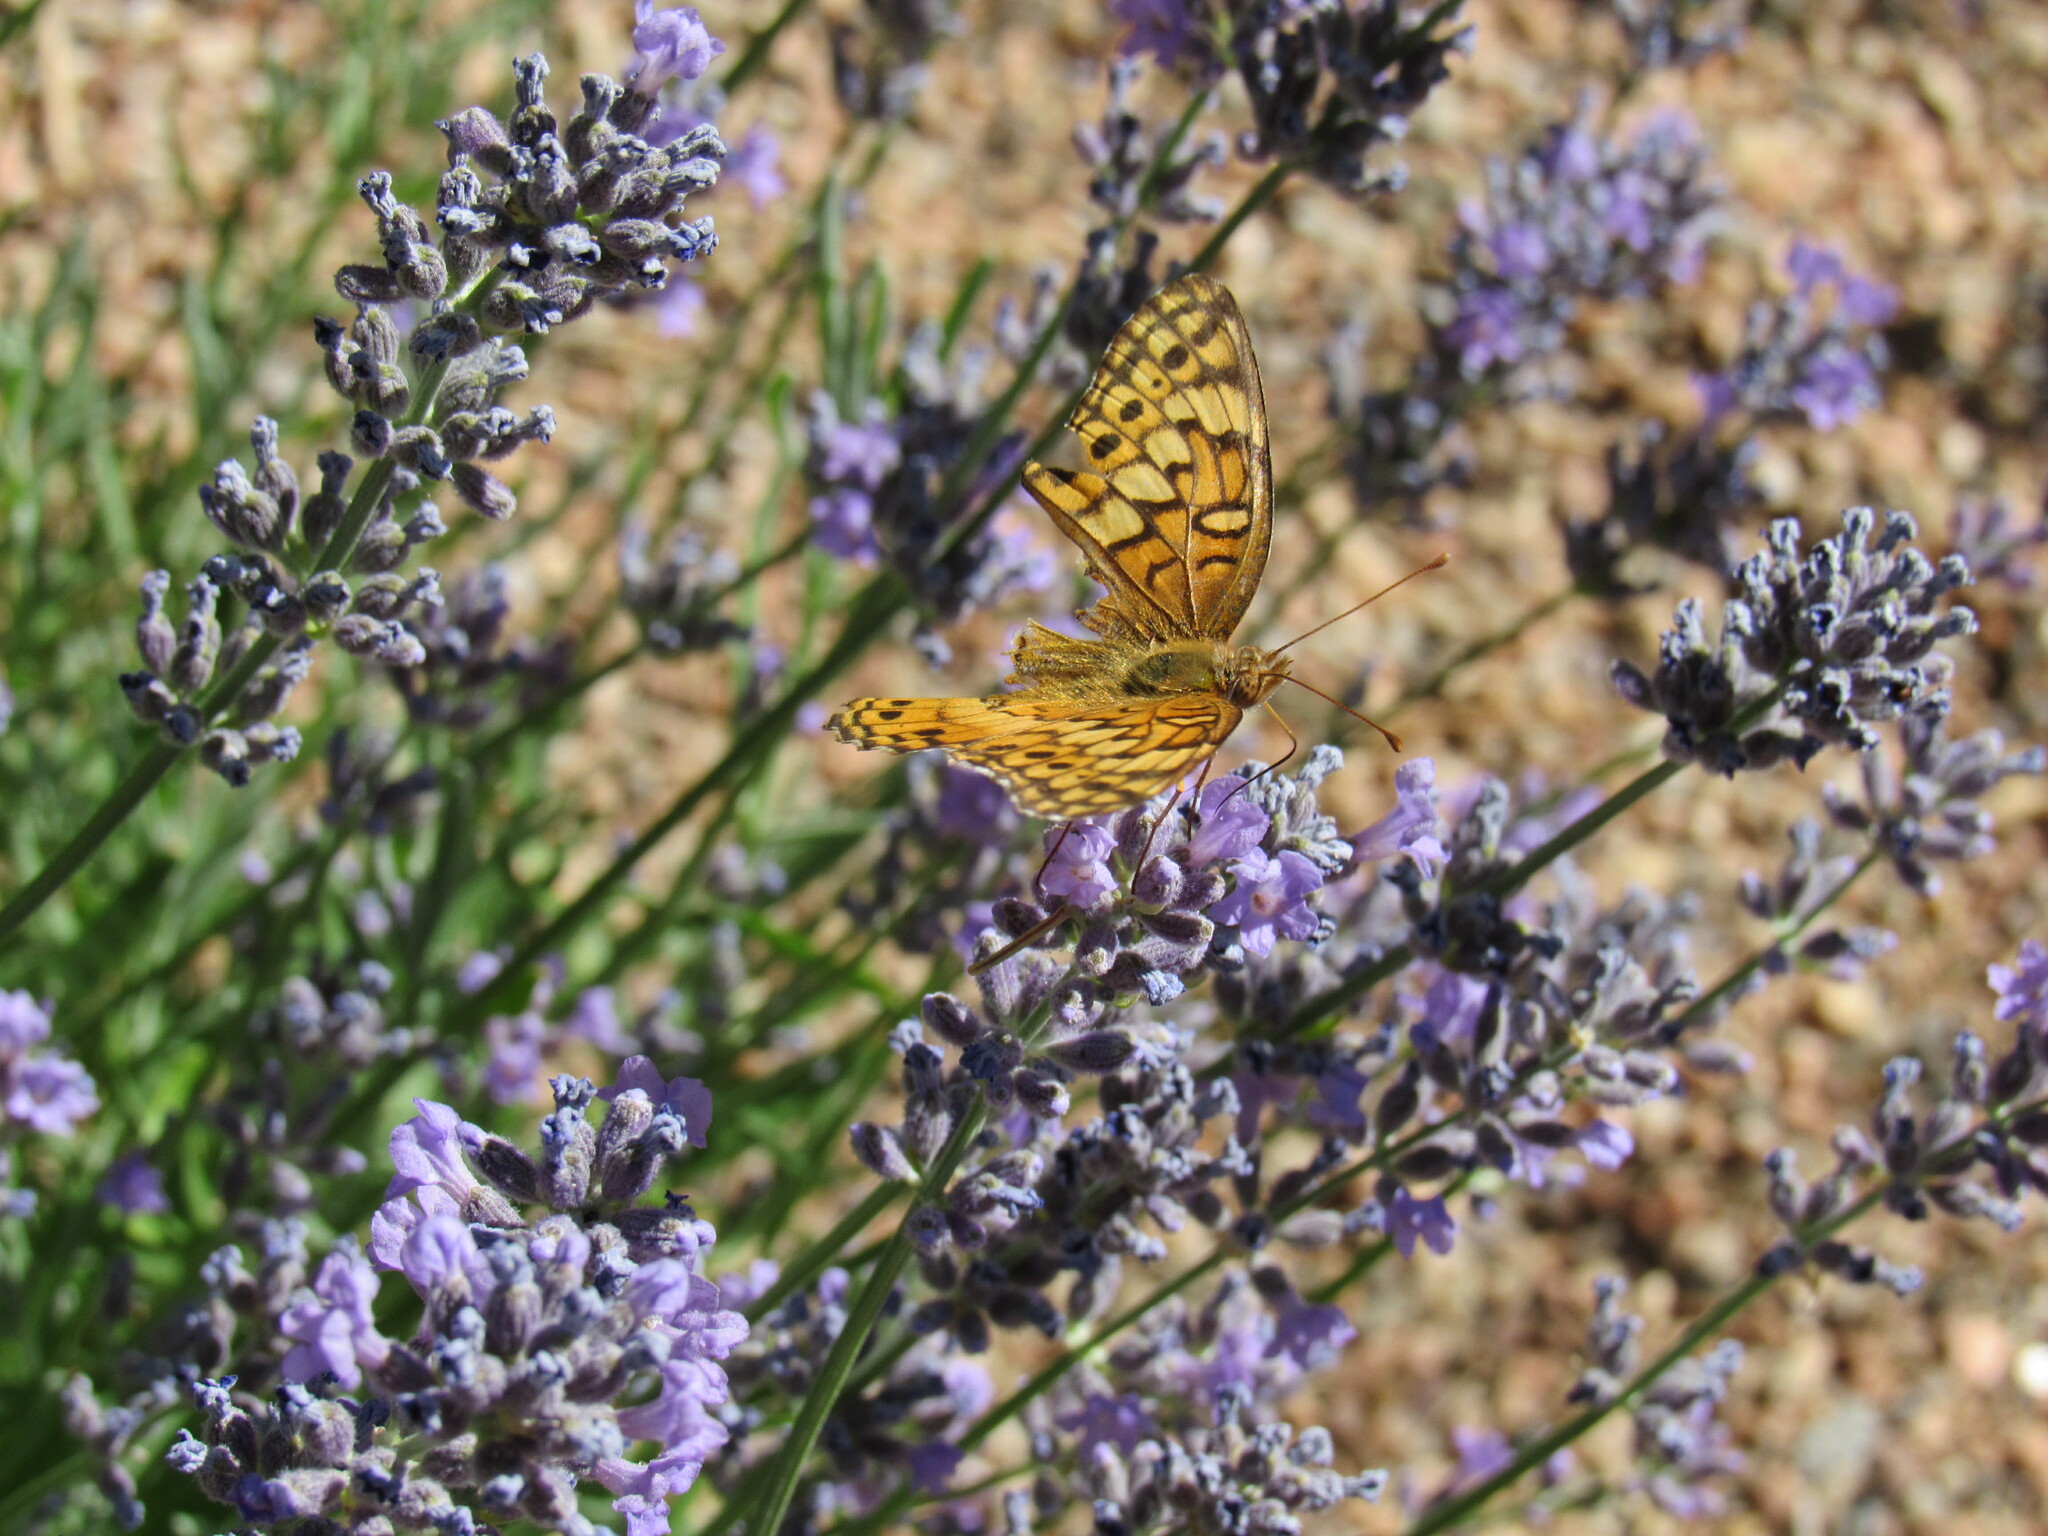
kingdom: Animalia
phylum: Arthropoda
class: Insecta
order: Lepidoptera
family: Nymphalidae
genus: Euptoieta
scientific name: Euptoieta claudia
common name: Variegated fritillary
